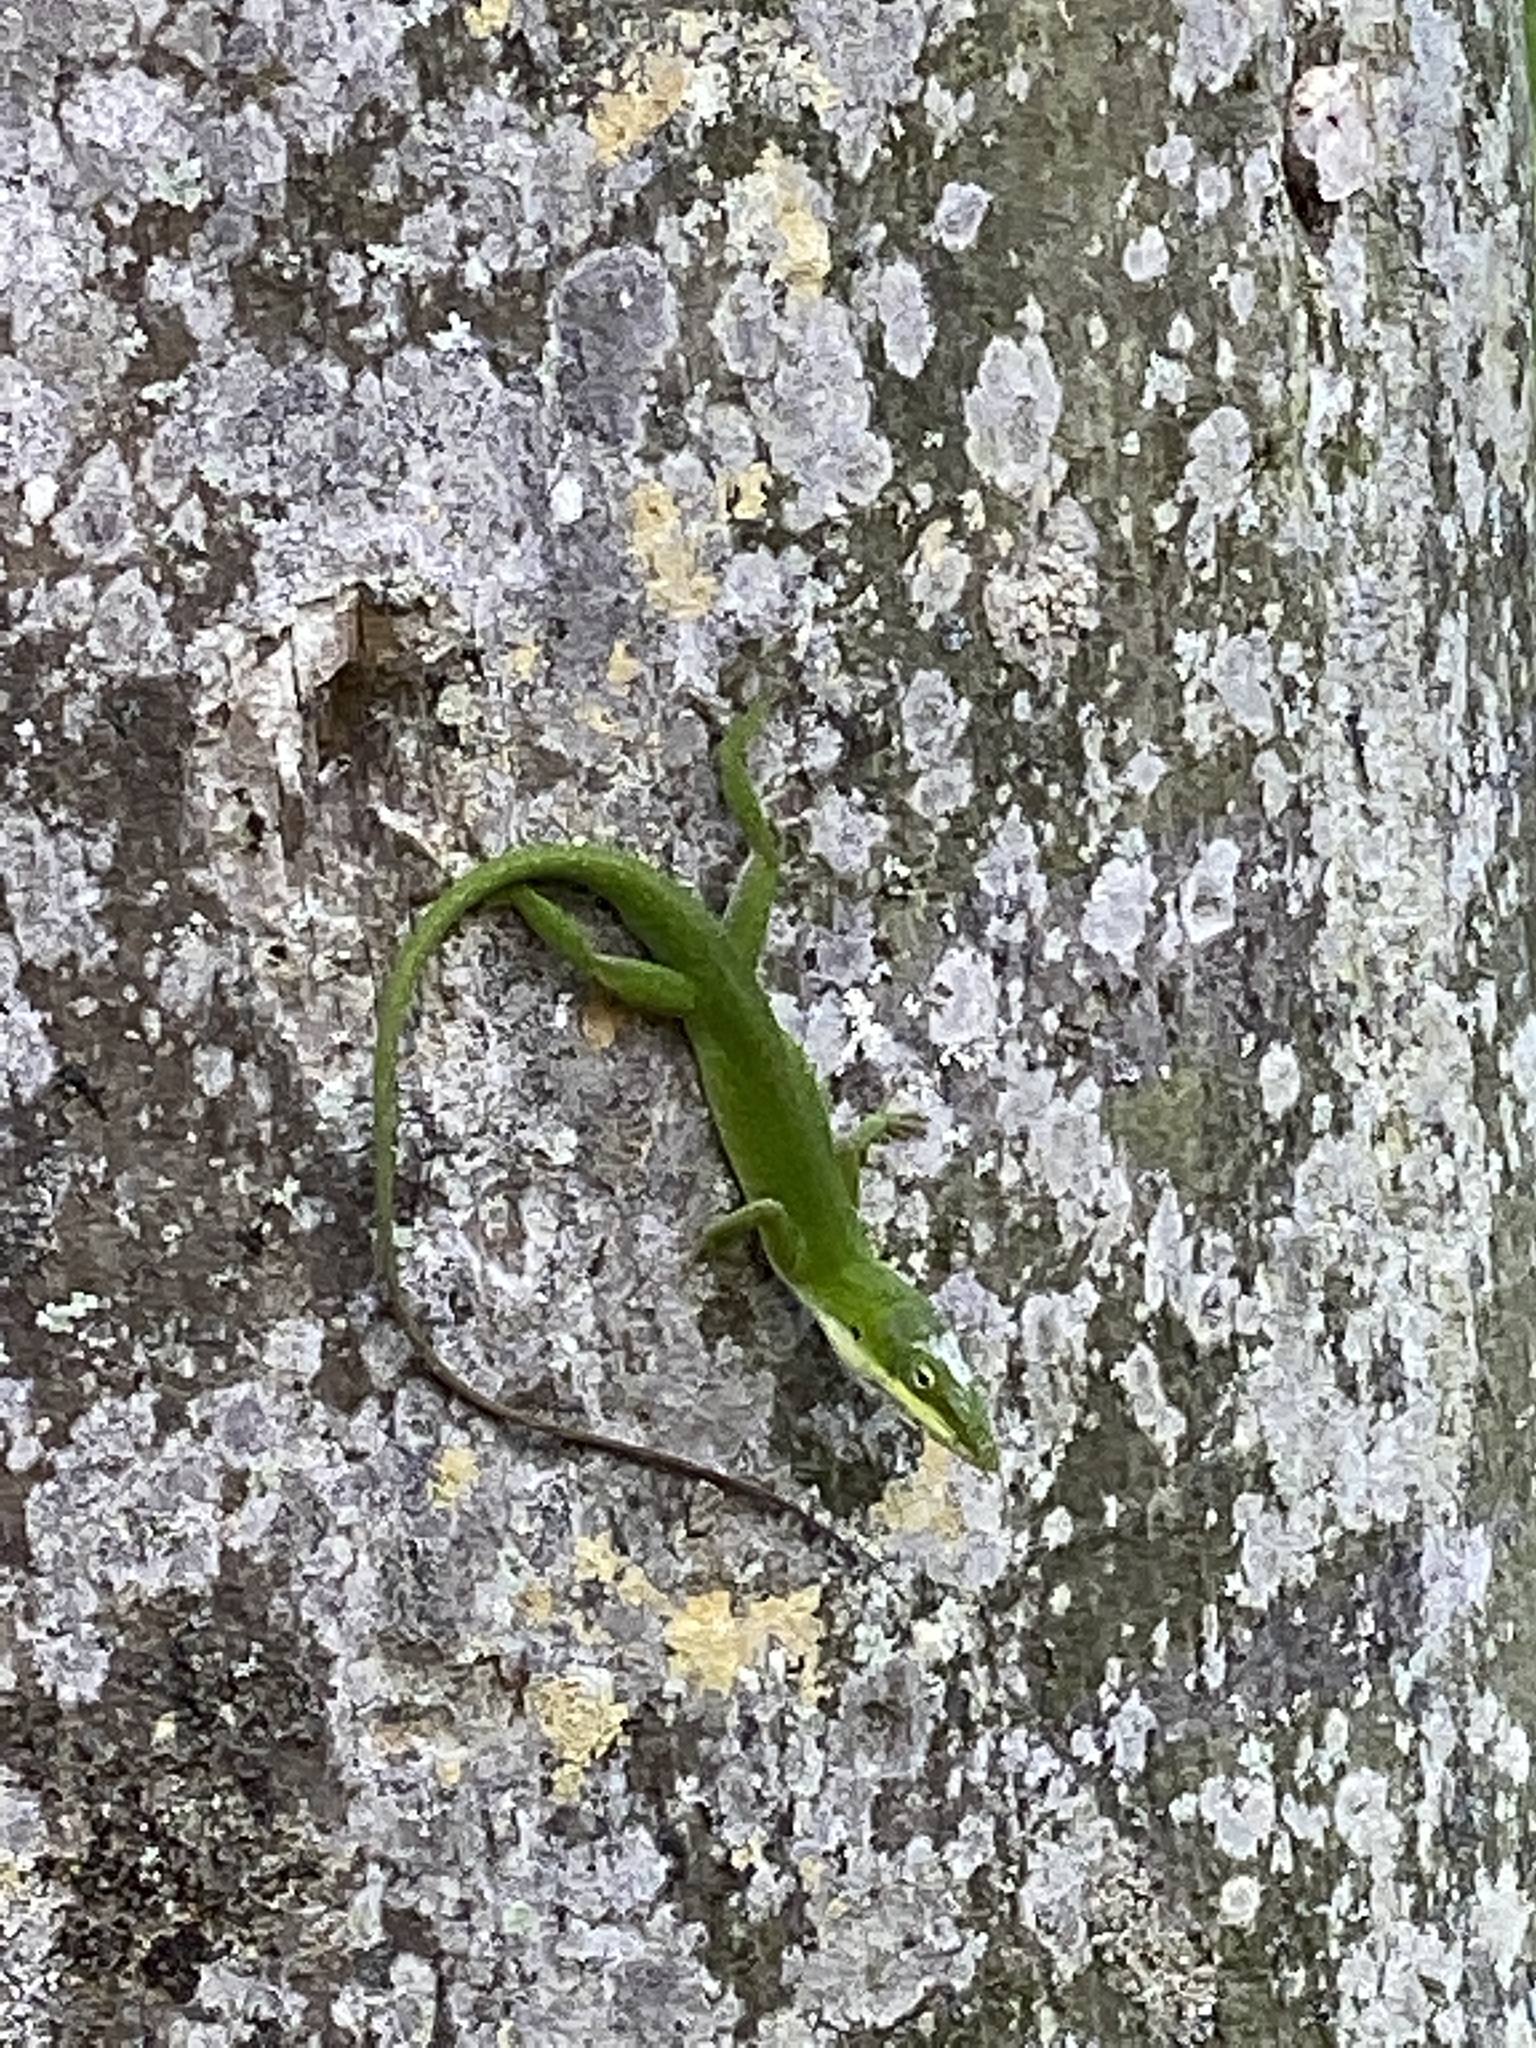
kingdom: Animalia
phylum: Chordata
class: Squamata
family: Dactyloidae
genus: Anolis
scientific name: Anolis carolinensis
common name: Green anole
